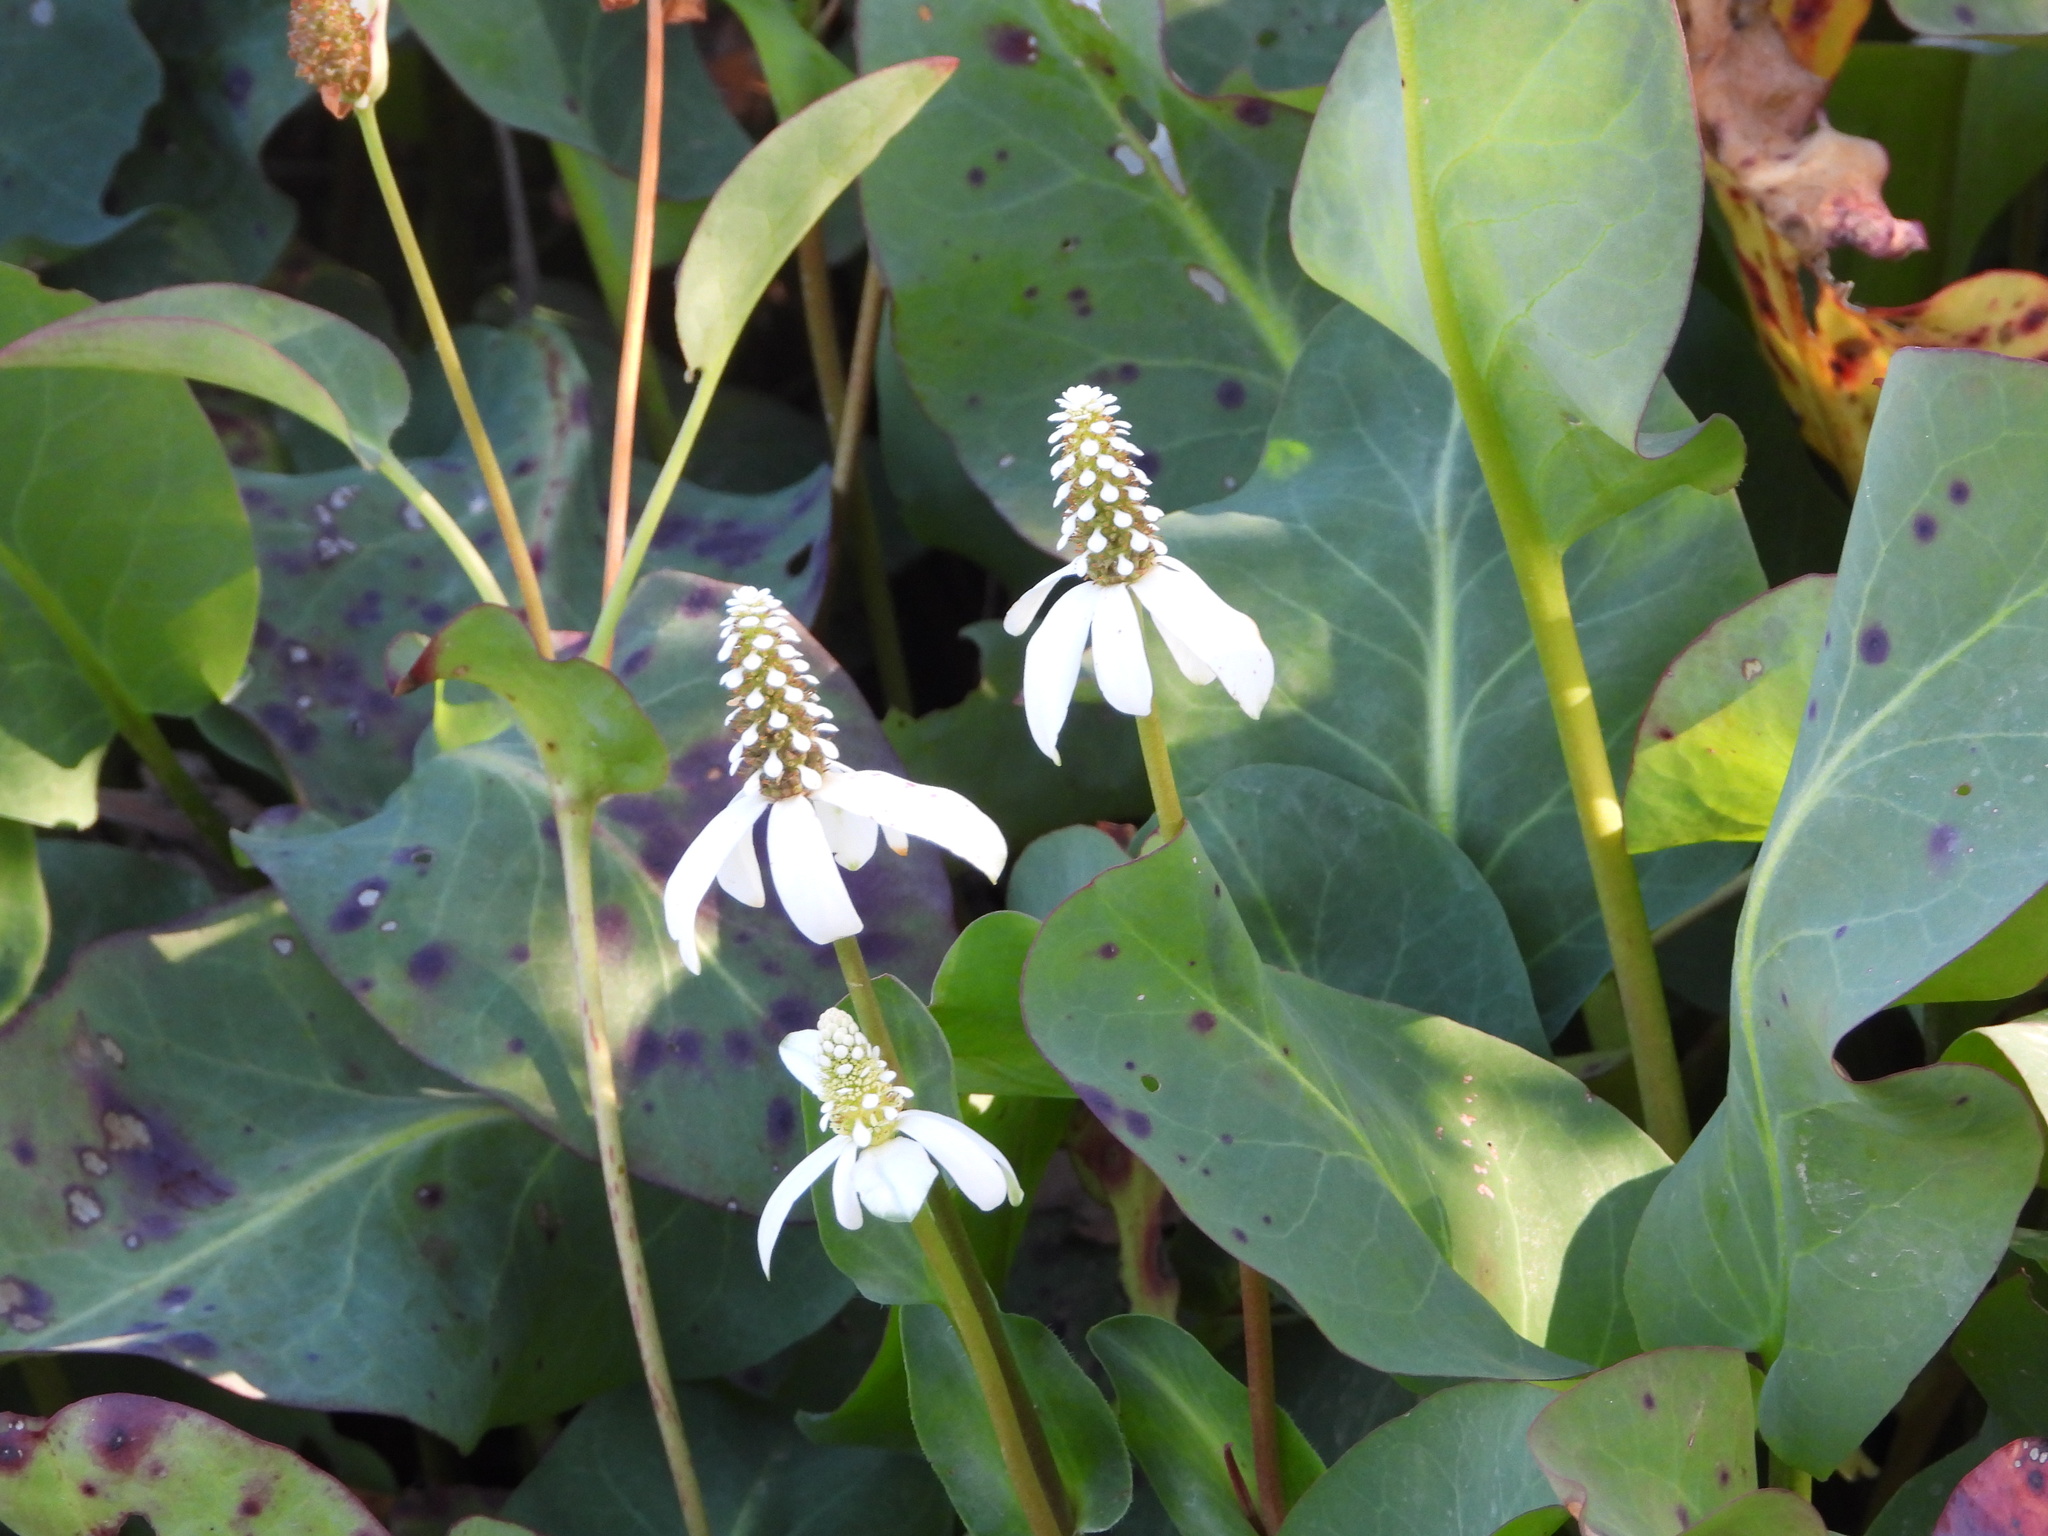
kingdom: Plantae
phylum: Tracheophyta
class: Magnoliopsida
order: Piperales
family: Saururaceae
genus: Anemopsis
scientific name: Anemopsis californica
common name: Apache-beads
